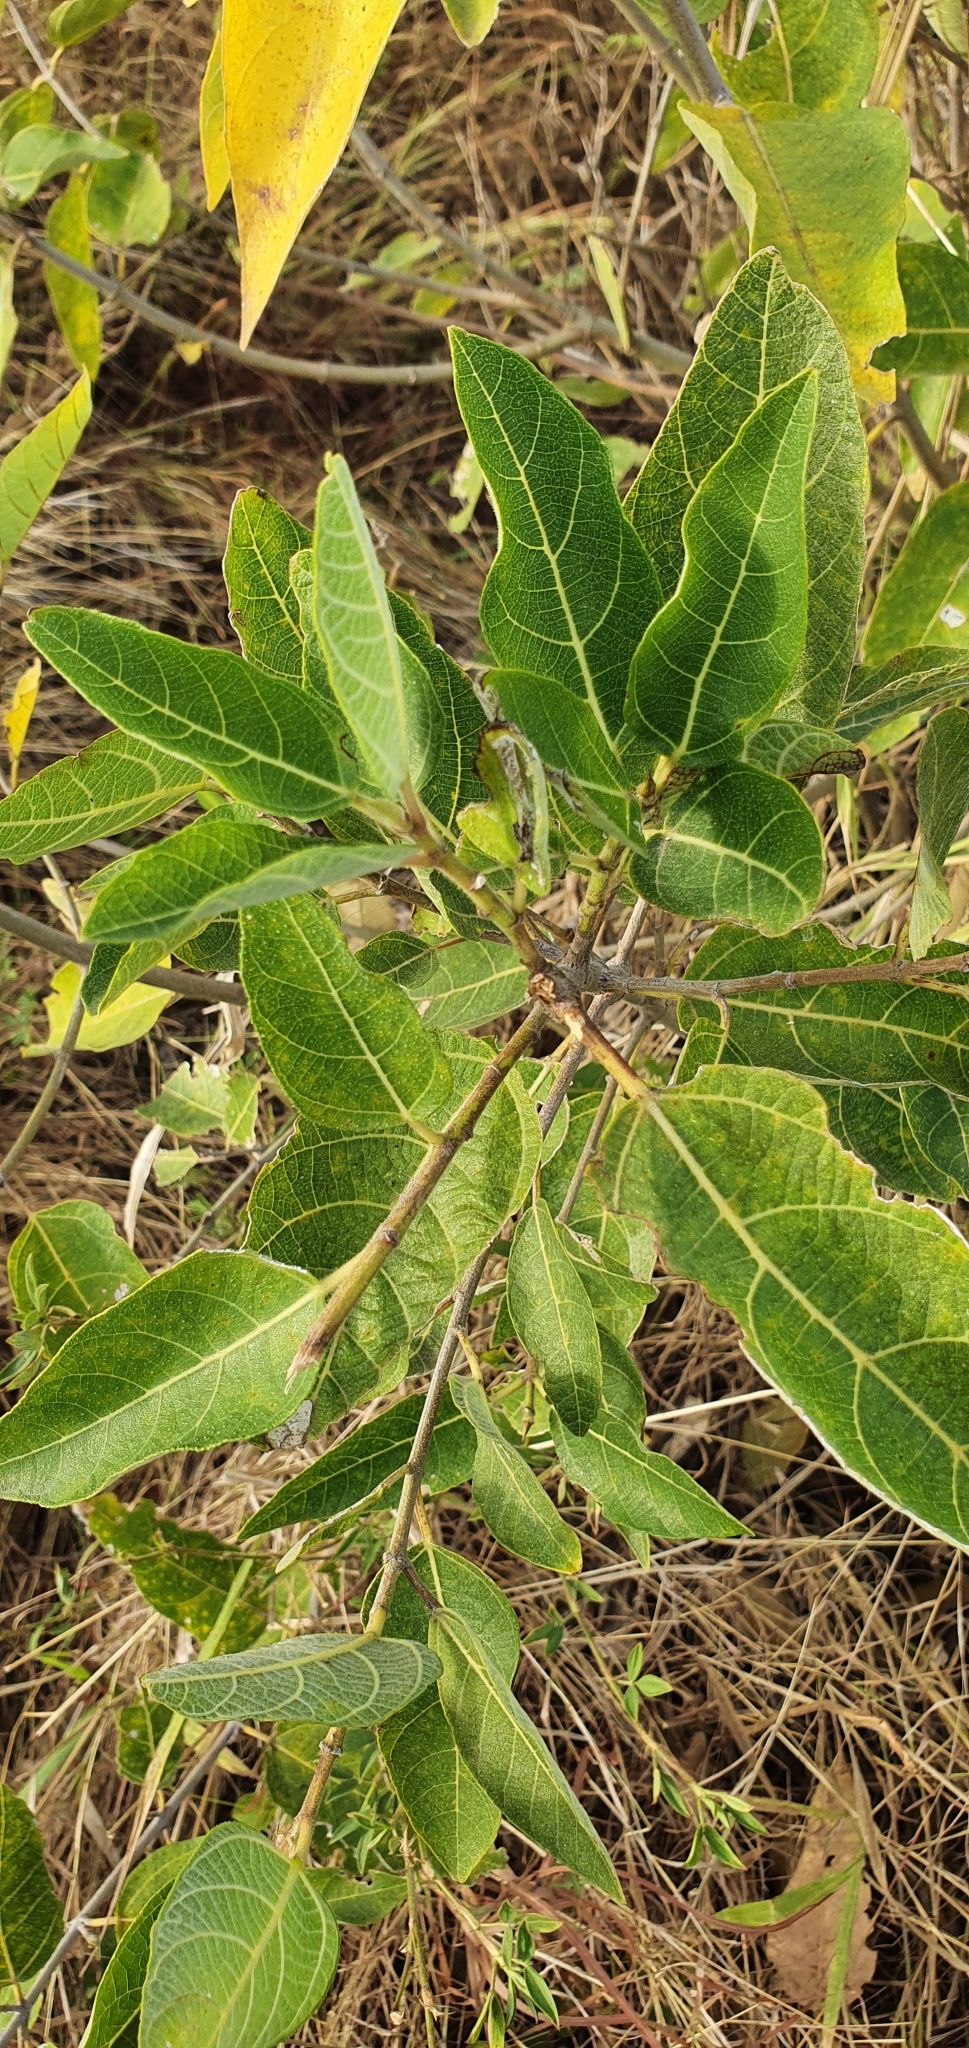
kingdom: Plantae
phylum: Tracheophyta
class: Magnoliopsida
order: Rosales
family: Moraceae
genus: Ficus
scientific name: Ficus opposita
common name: Figwood
